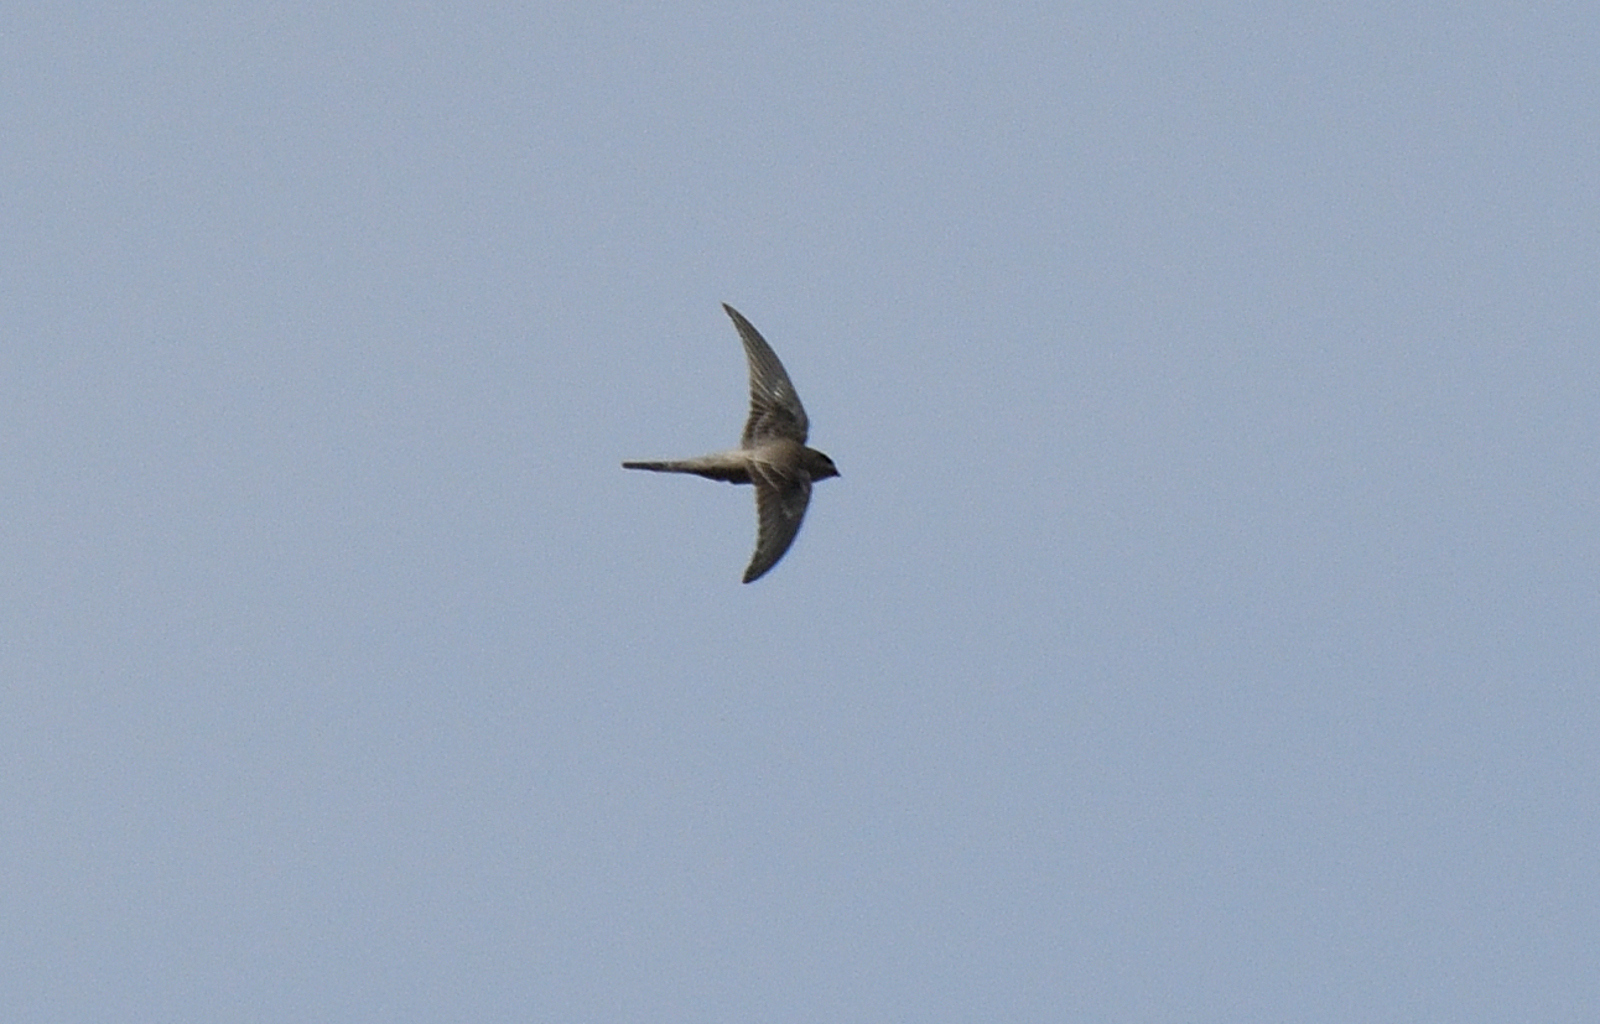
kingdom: Animalia
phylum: Chordata
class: Aves
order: Apodiformes
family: Apodidae
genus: Cypsiurus
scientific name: Cypsiurus balasiensis
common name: Asian palm swift
